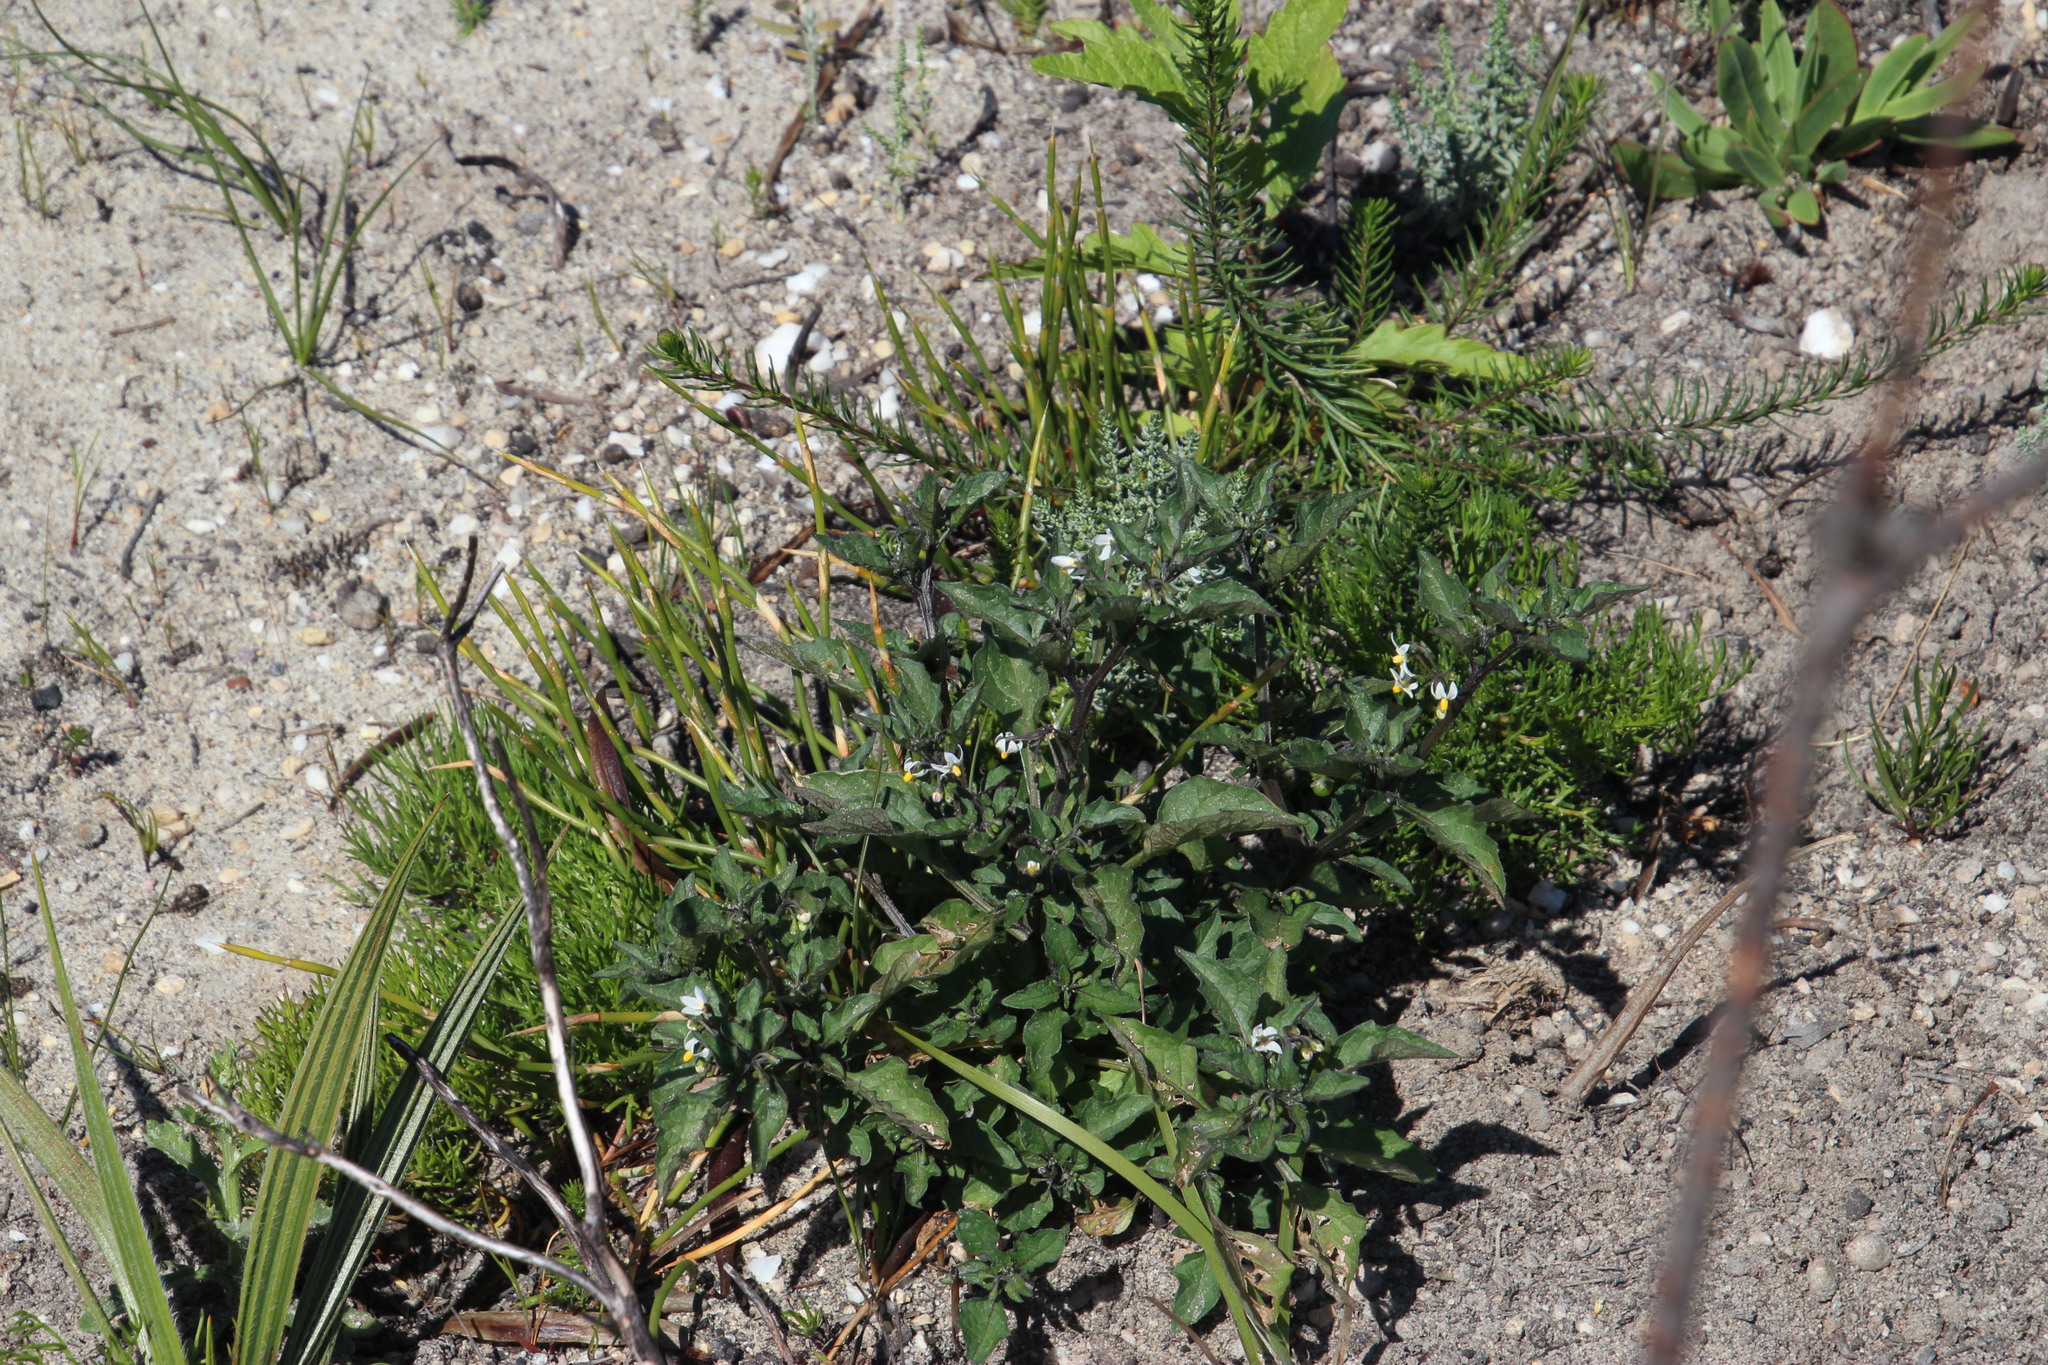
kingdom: Plantae
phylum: Tracheophyta
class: Magnoliopsida
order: Solanales
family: Solanaceae
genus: Solanum
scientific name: Solanum nigrum
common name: Black nightshade
